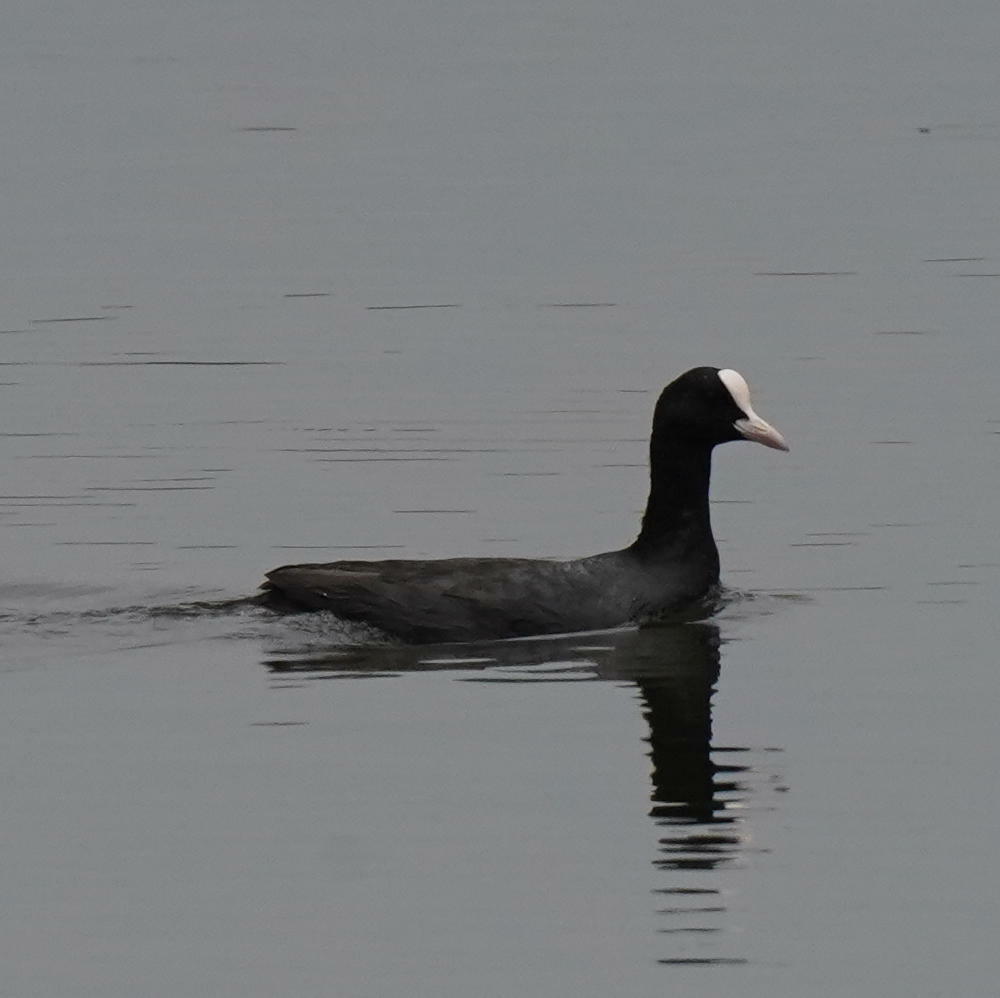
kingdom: Animalia
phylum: Chordata
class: Aves
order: Gruiformes
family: Rallidae
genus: Fulica
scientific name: Fulica atra
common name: Eurasian coot
